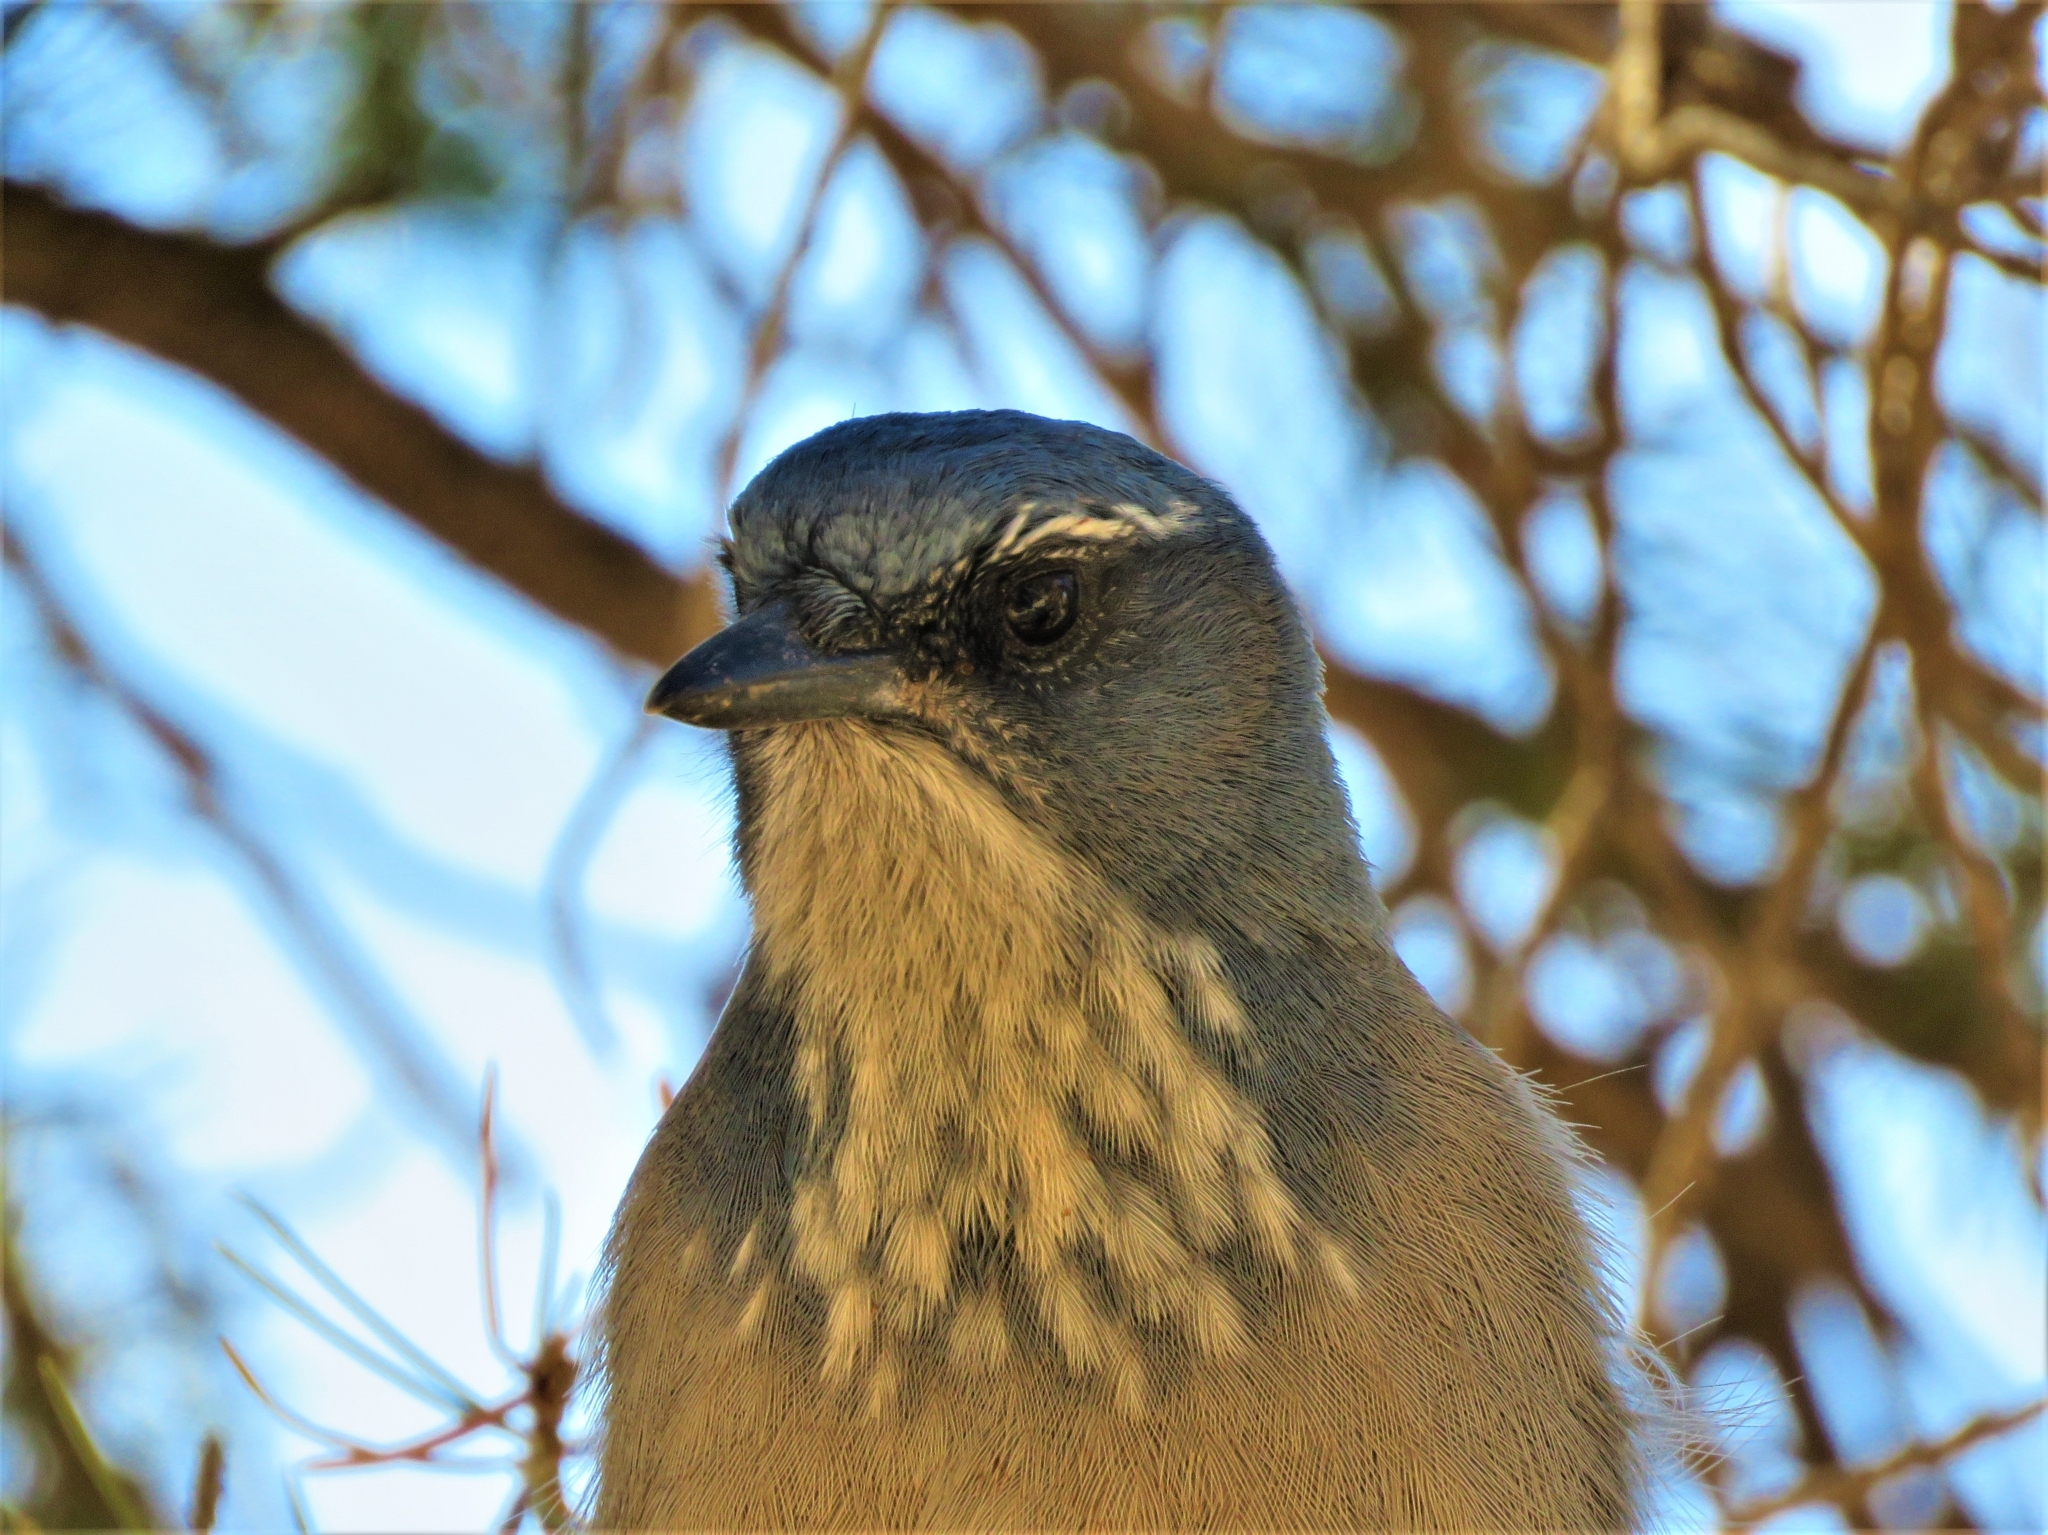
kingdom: Animalia
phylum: Chordata
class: Aves
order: Passeriformes
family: Corvidae
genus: Aphelocoma
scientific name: Aphelocoma woodhouseii
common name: Woodhouse's scrub-jay
